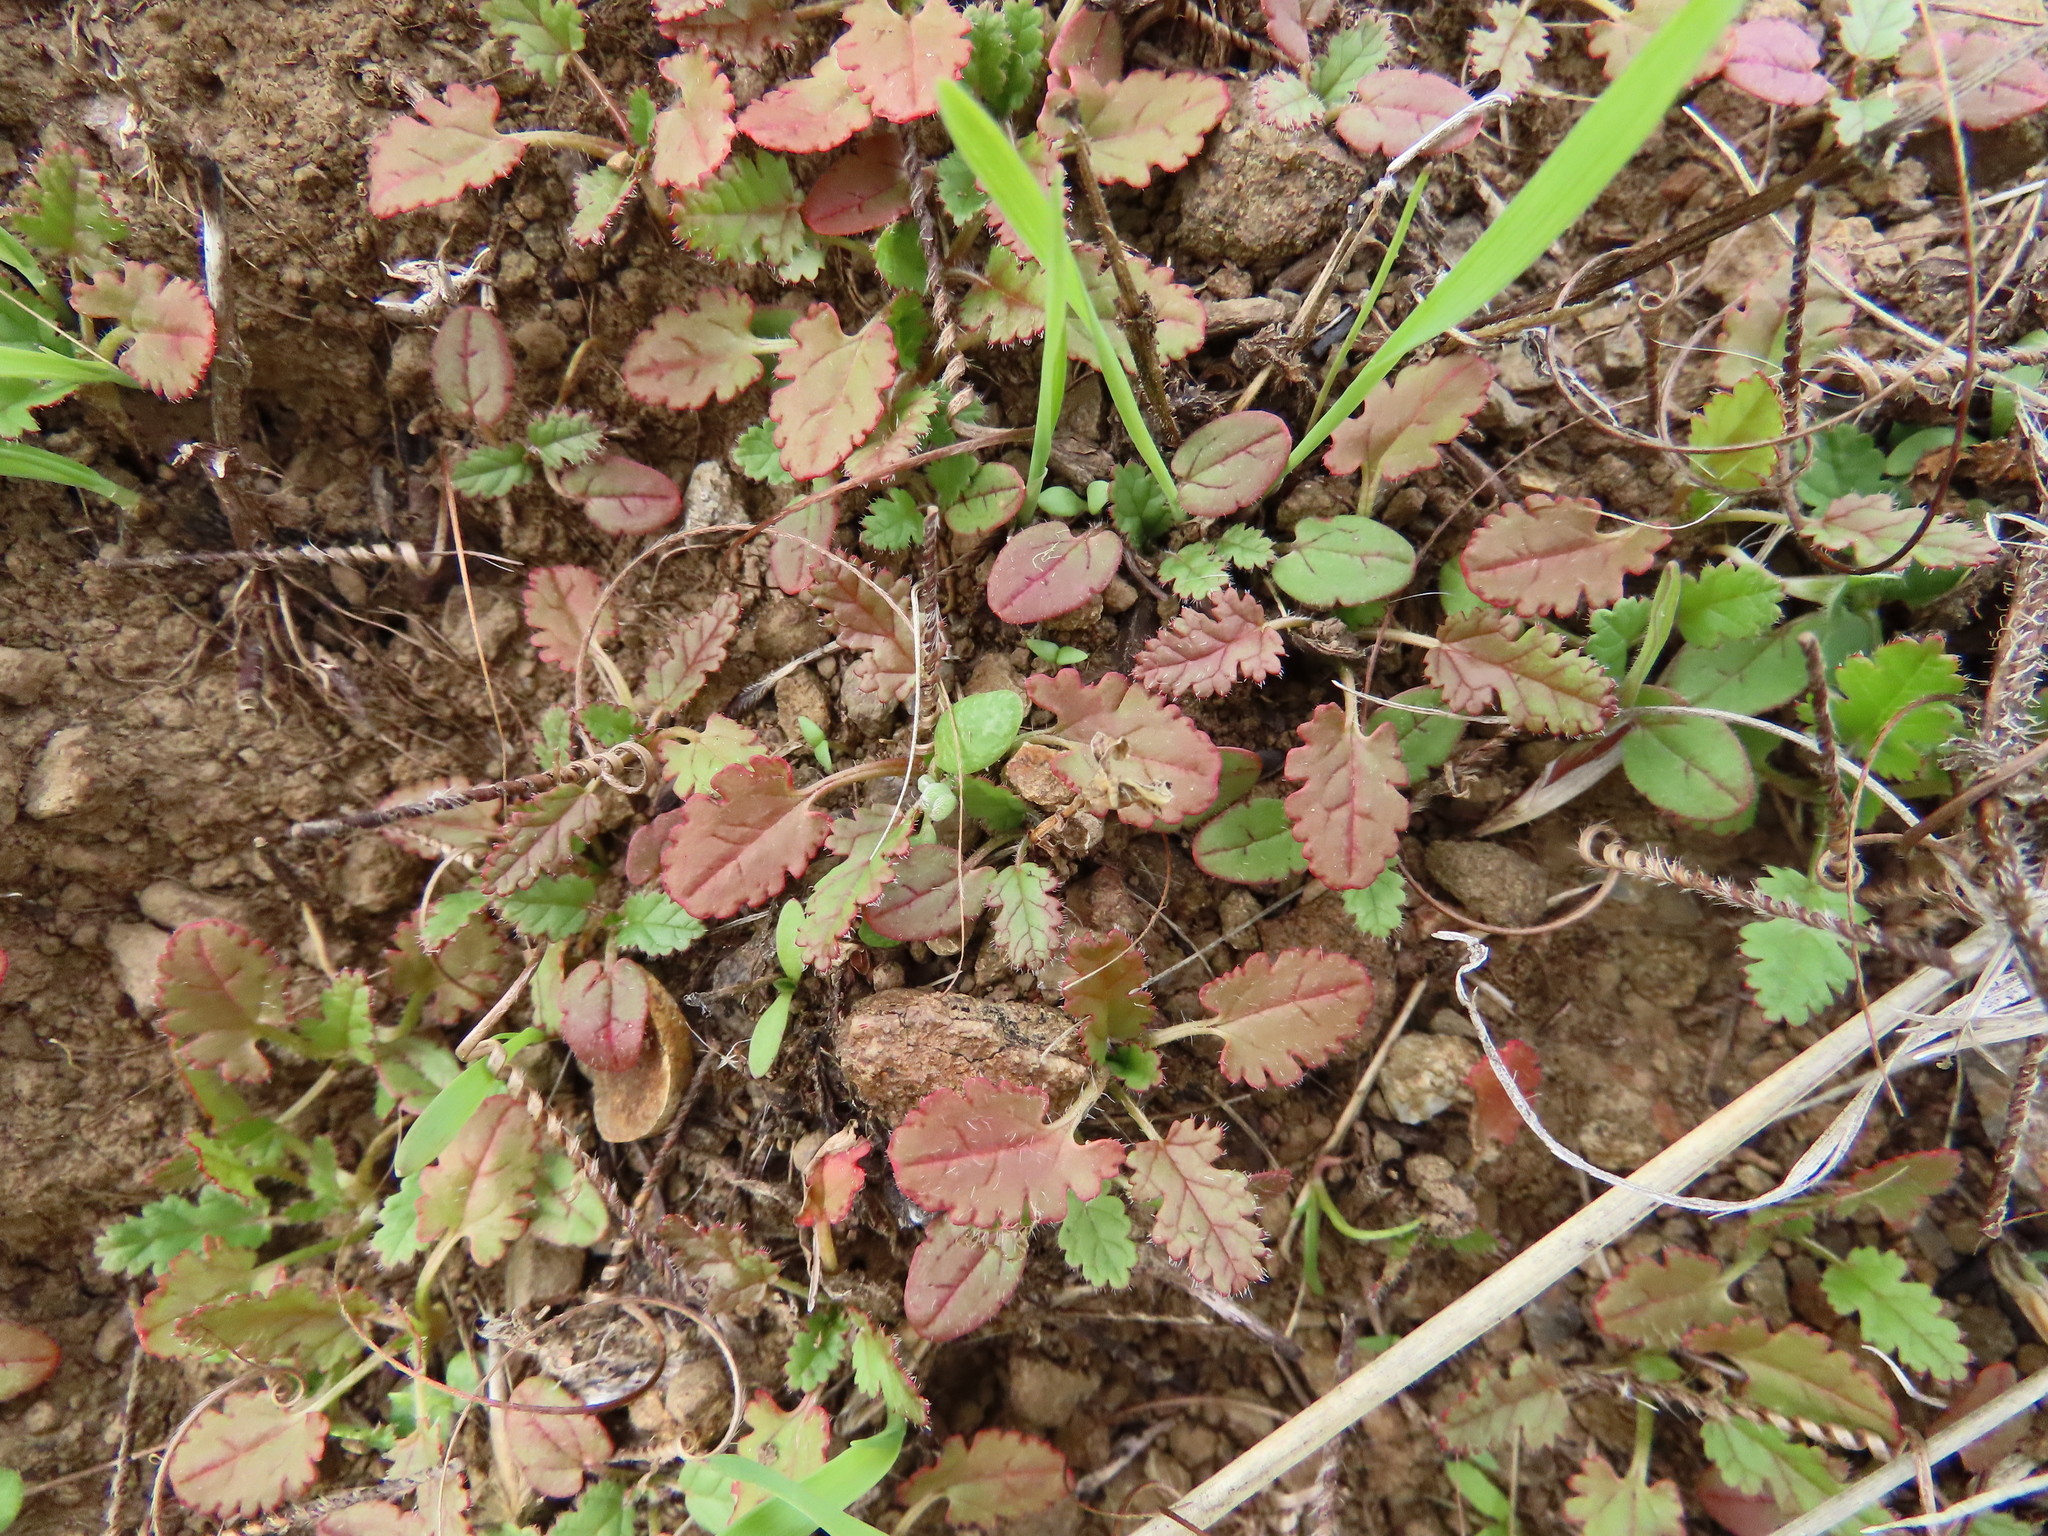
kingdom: Plantae
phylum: Tracheophyta
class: Magnoliopsida
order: Geraniales
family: Geraniaceae
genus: Erodium
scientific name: Erodium
